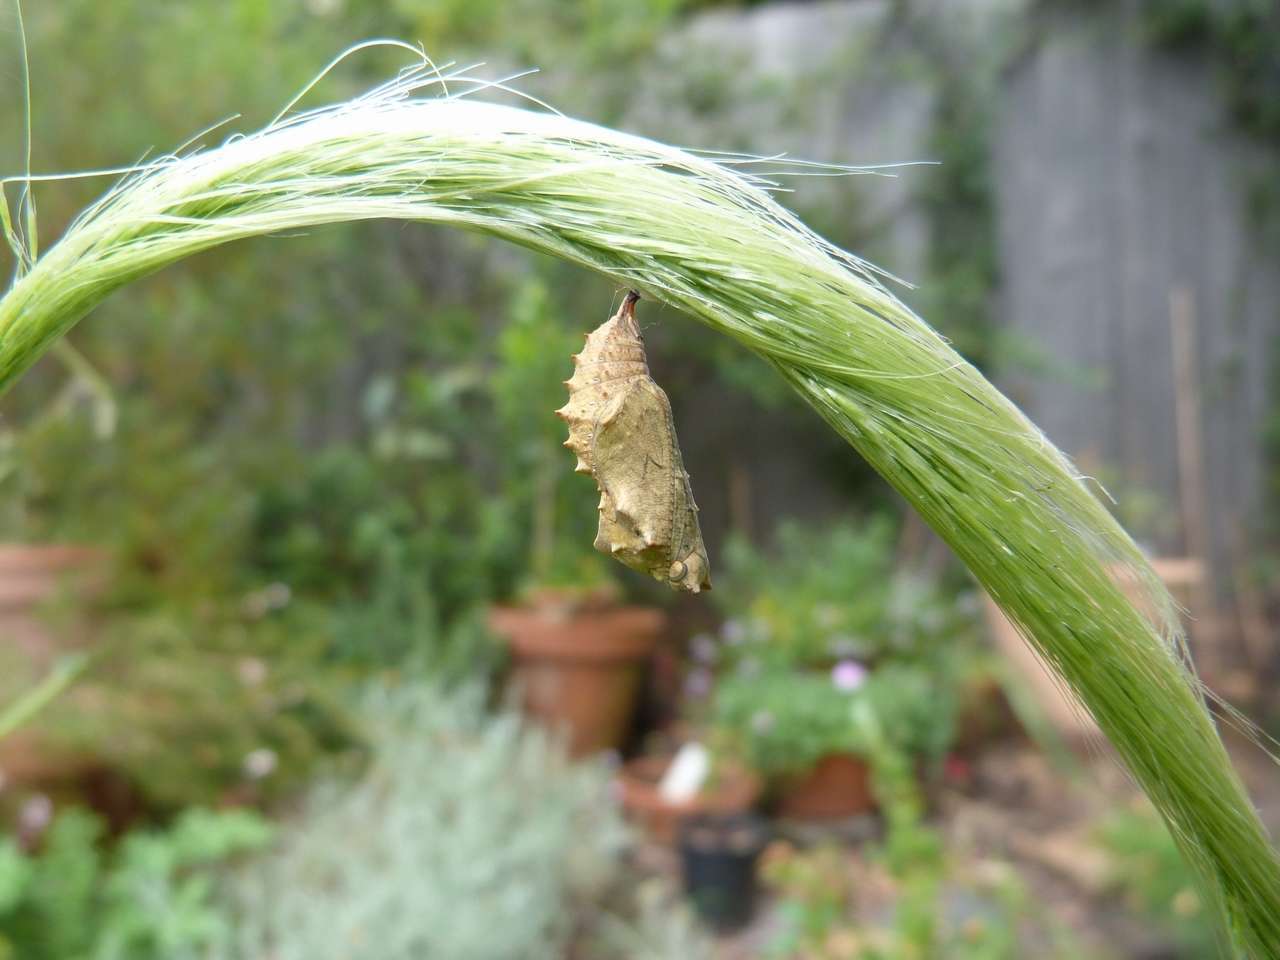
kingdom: Animalia
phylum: Arthropoda
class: Insecta
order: Lepidoptera
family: Nymphalidae
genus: Vanessa
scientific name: Vanessa itea
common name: Yellow admiral
